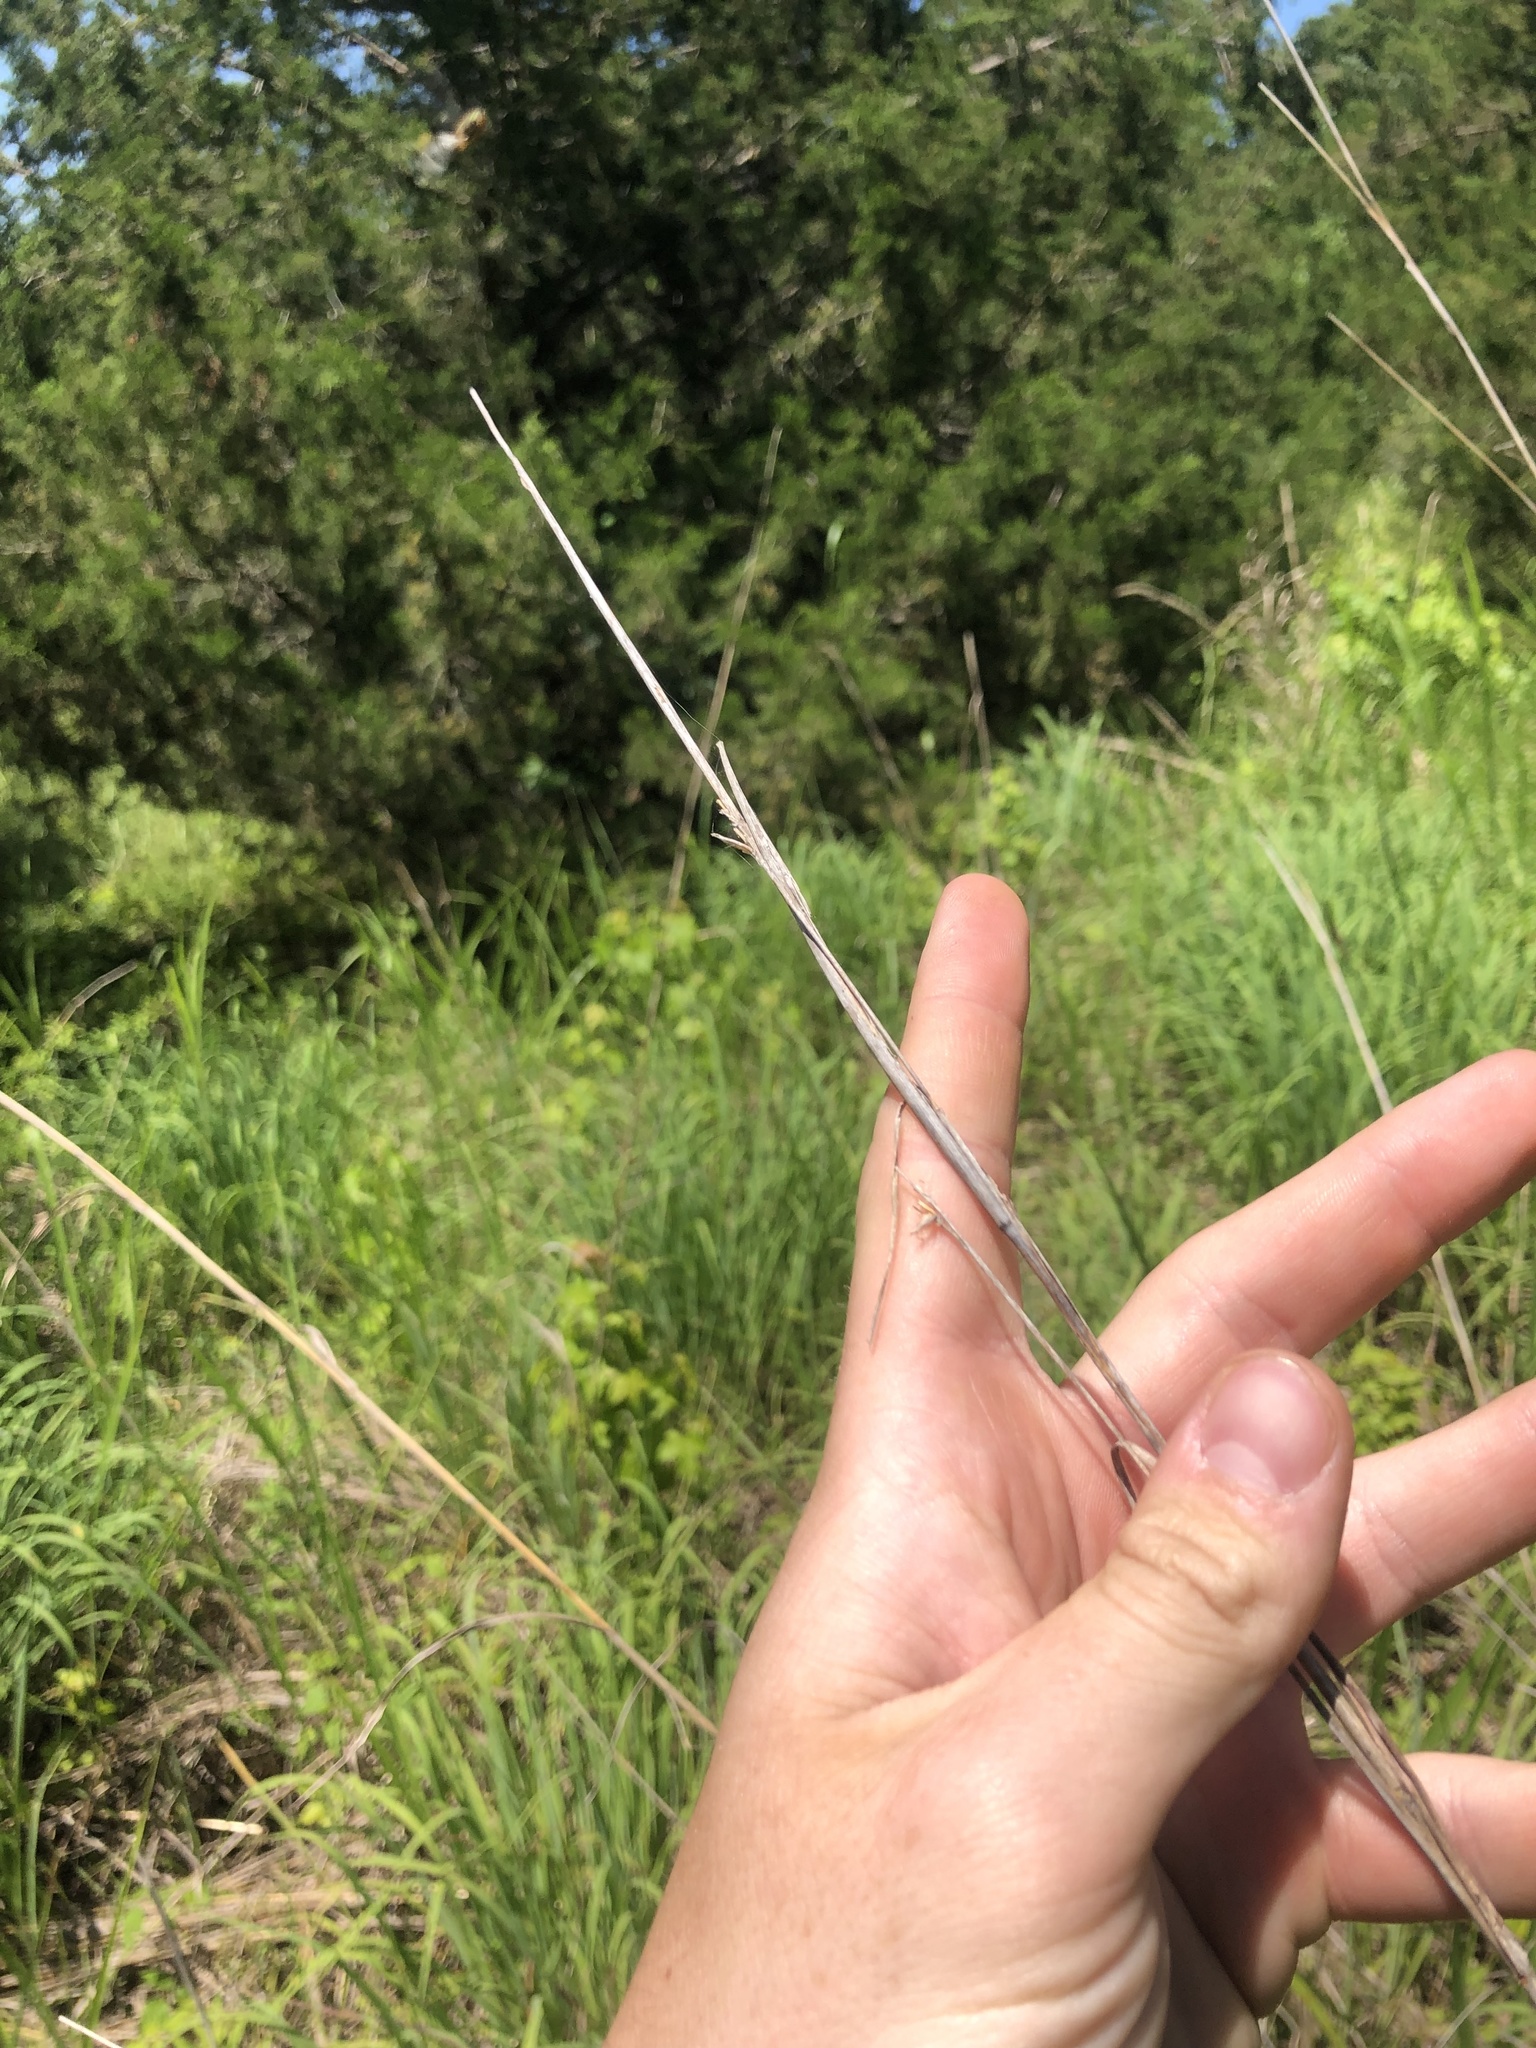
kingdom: Plantae
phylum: Tracheophyta
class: Liliopsida
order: Poales
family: Poaceae
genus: Andropogon
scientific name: Andropogon gerardi
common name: Big bluestem
